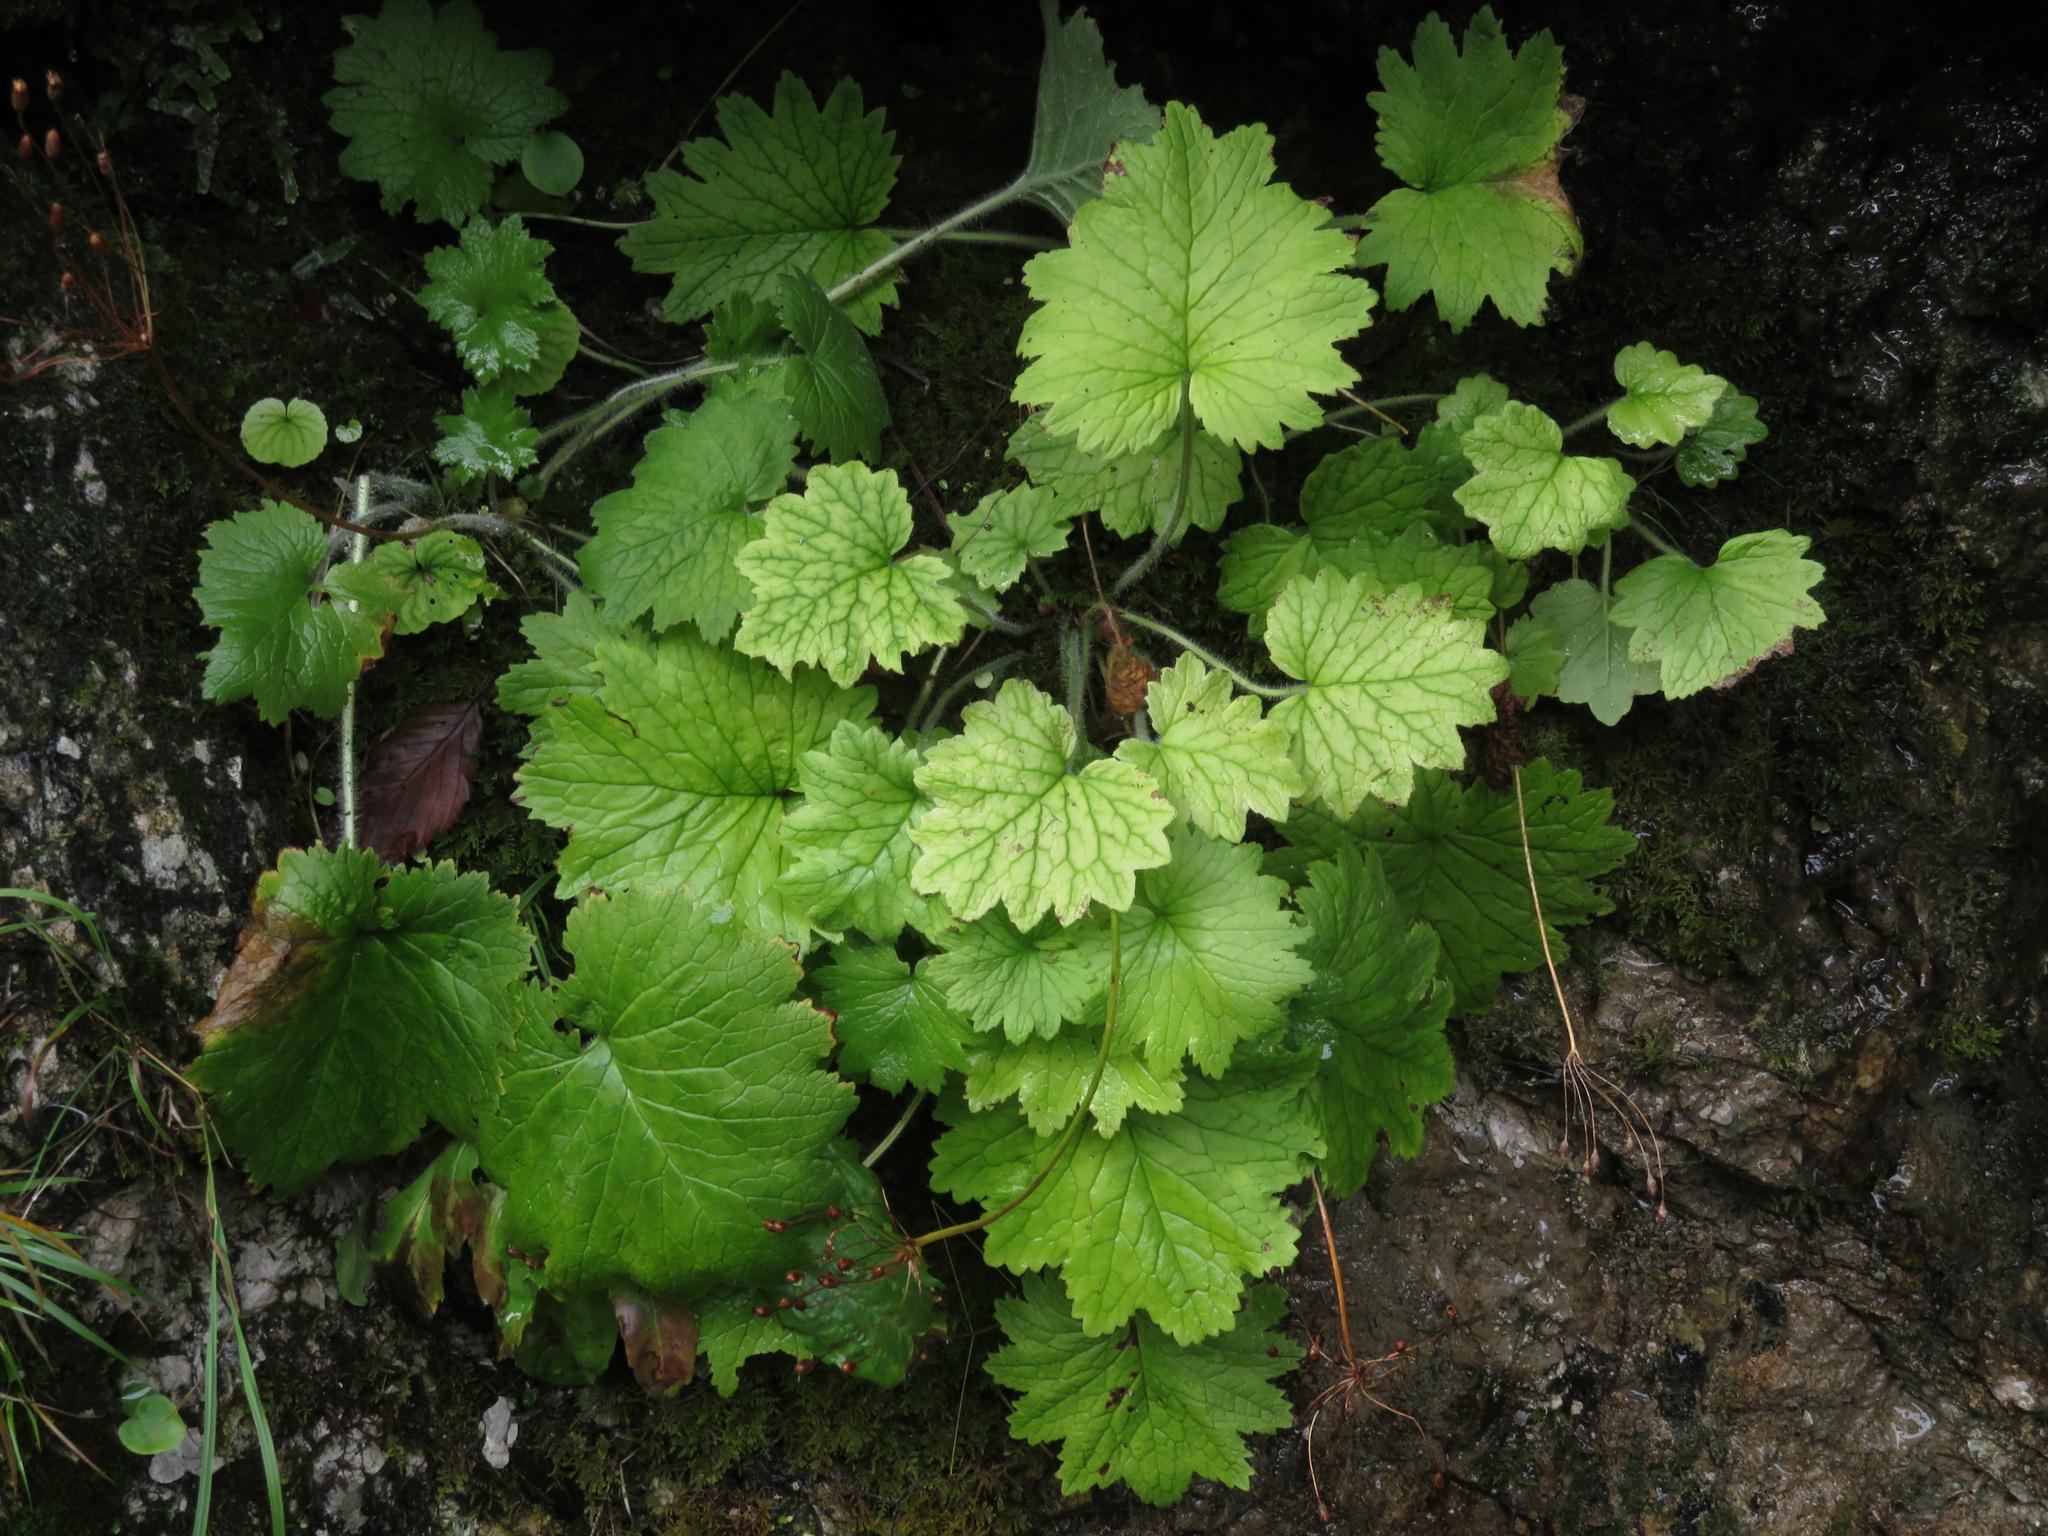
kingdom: Plantae
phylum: Tracheophyta
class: Magnoliopsida
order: Ericales
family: Primulaceae
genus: Primula
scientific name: Primula matthioli
